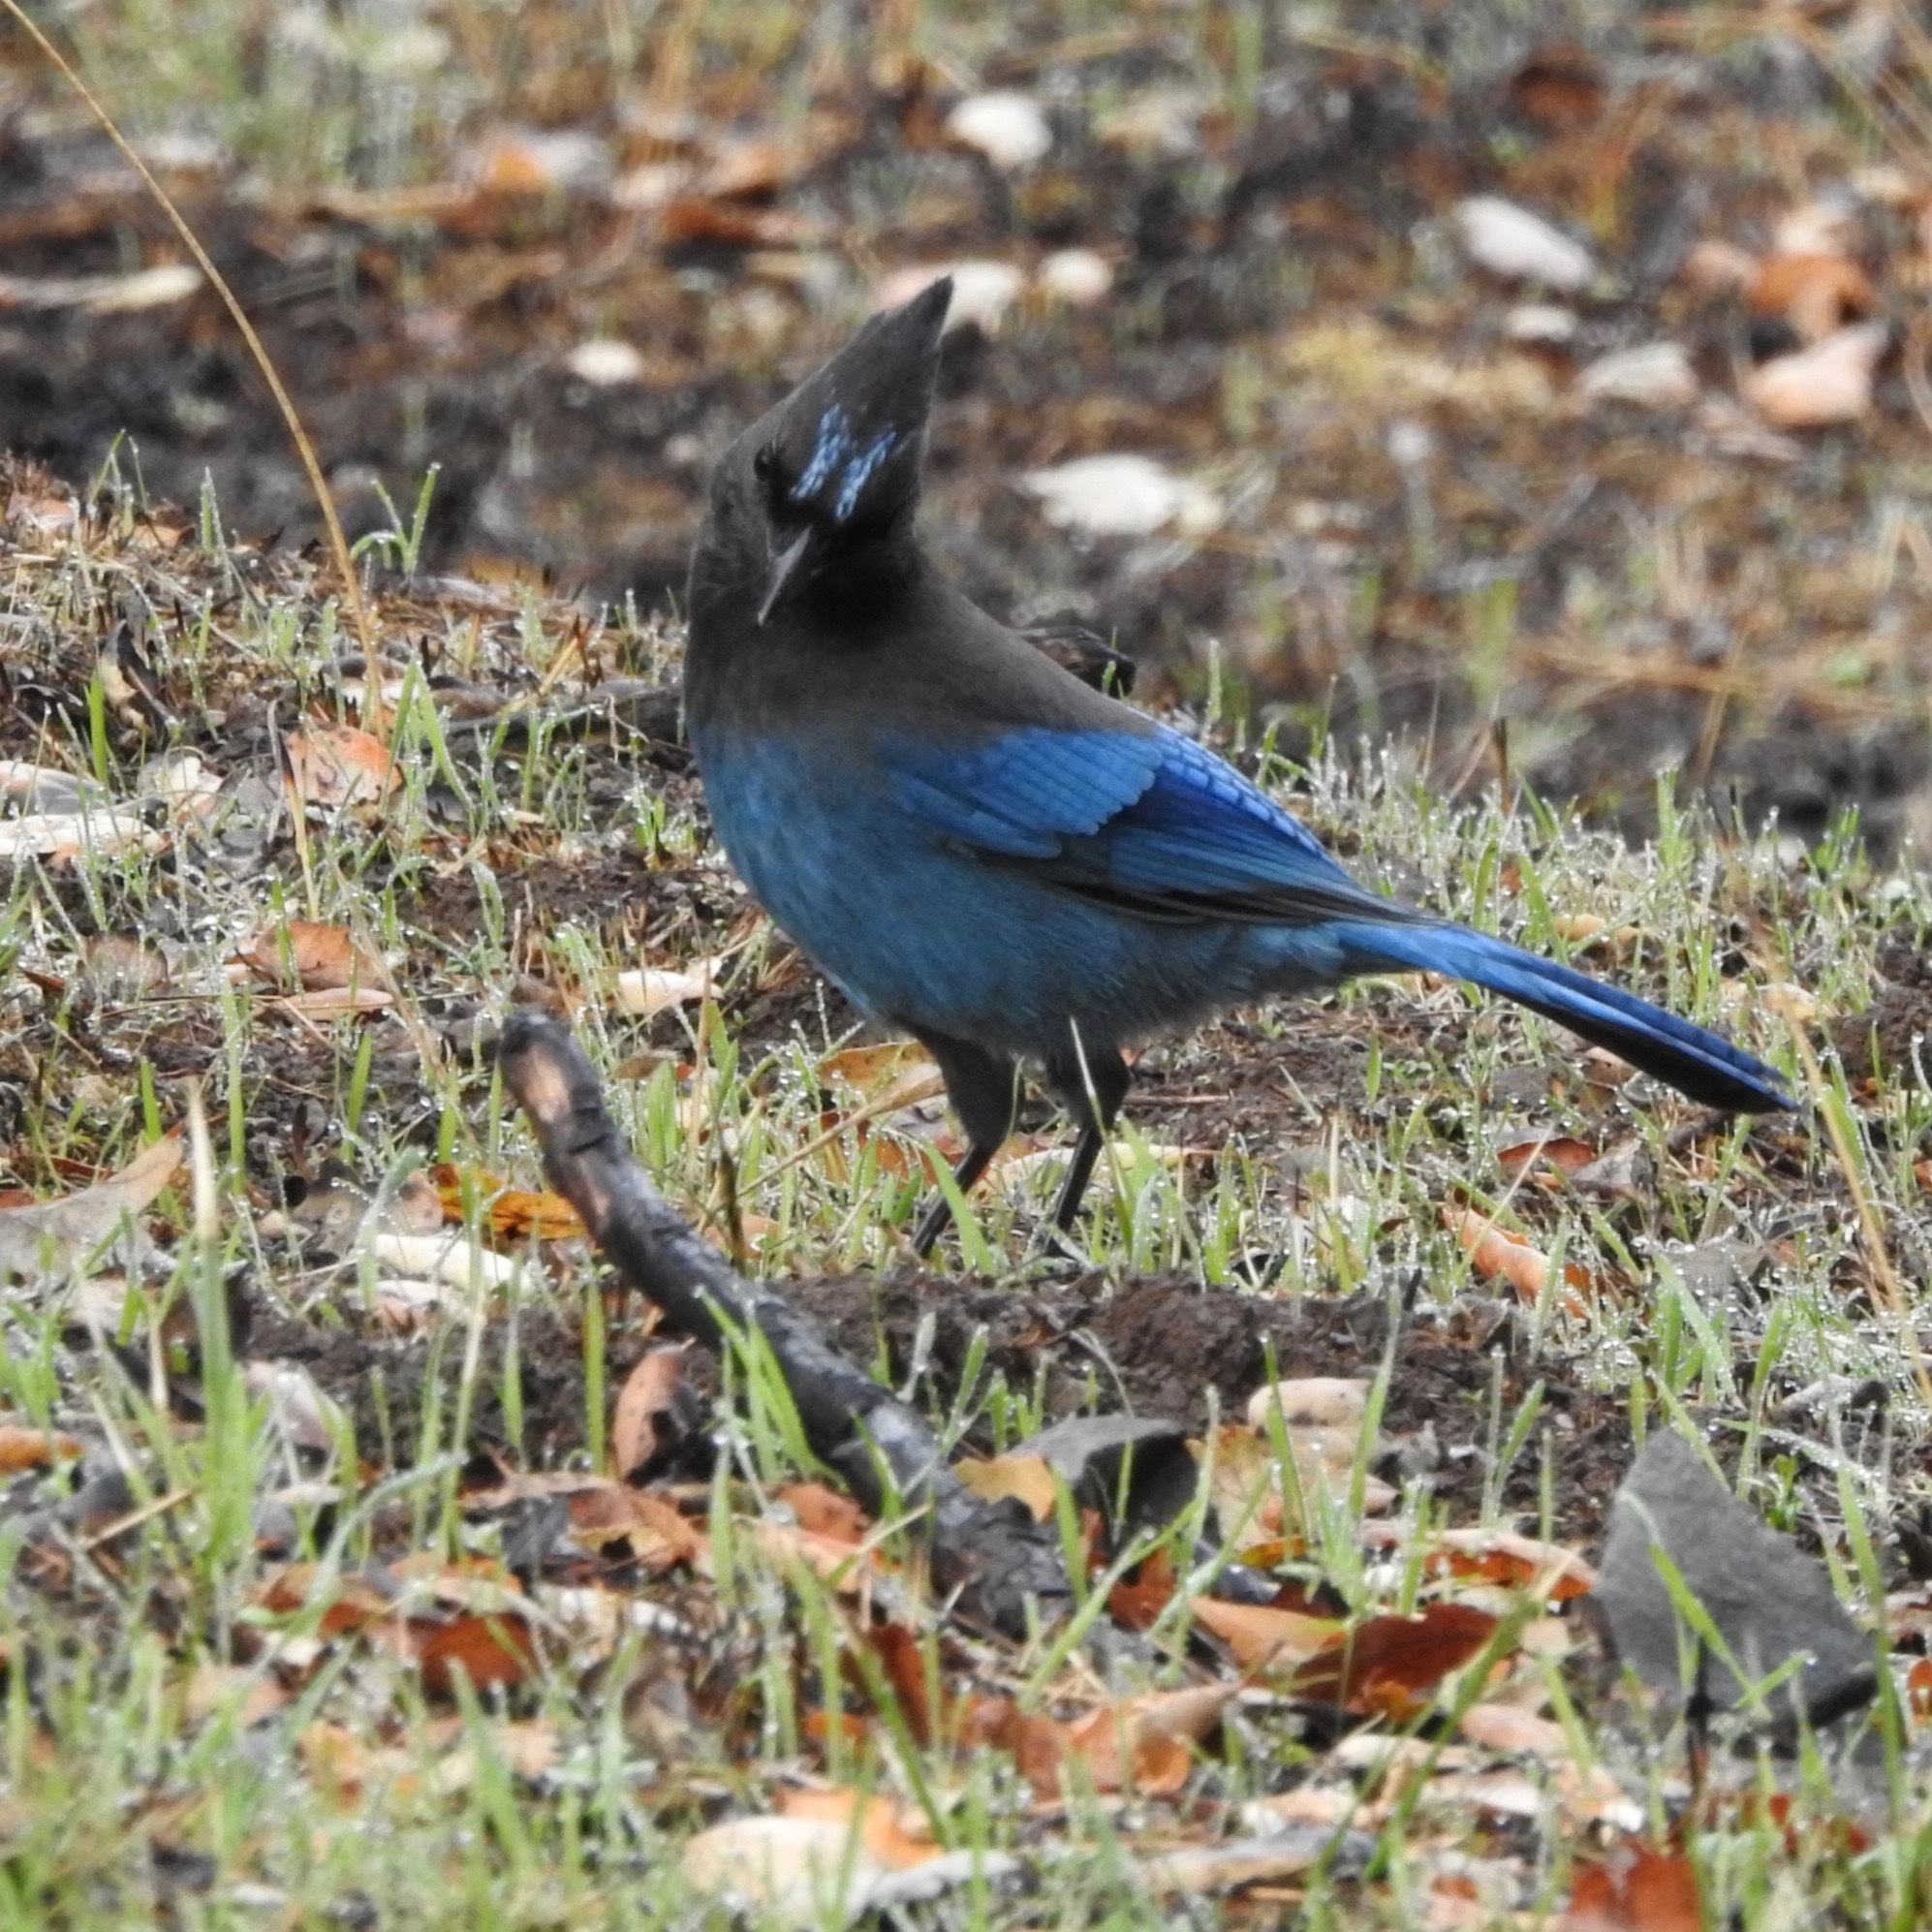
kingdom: Animalia
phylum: Chordata
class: Aves
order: Passeriformes
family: Corvidae
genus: Cyanocitta
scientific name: Cyanocitta stelleri
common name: Steller's jay
